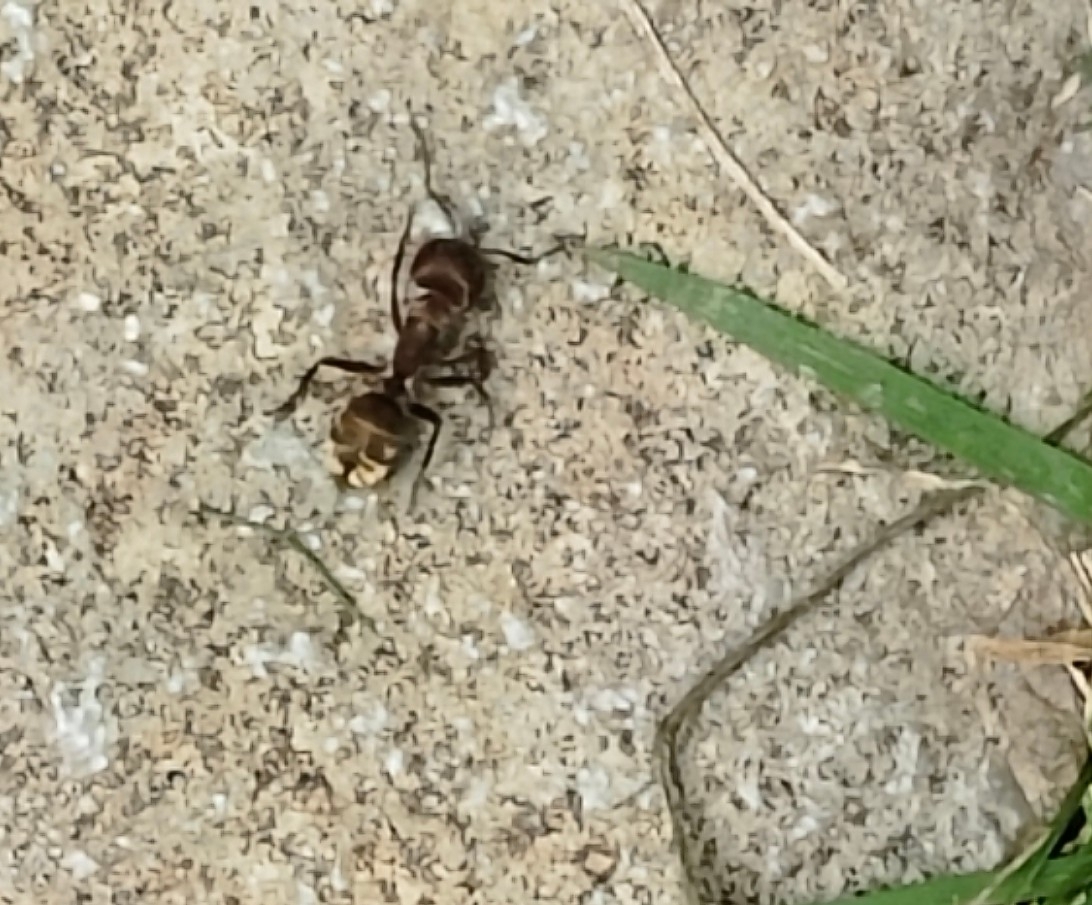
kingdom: Animalia
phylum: Arthropoda
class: Insecta
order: Hymenoptera
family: Formicidae
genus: Camponotus
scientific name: Camponotus rufoglaucus
